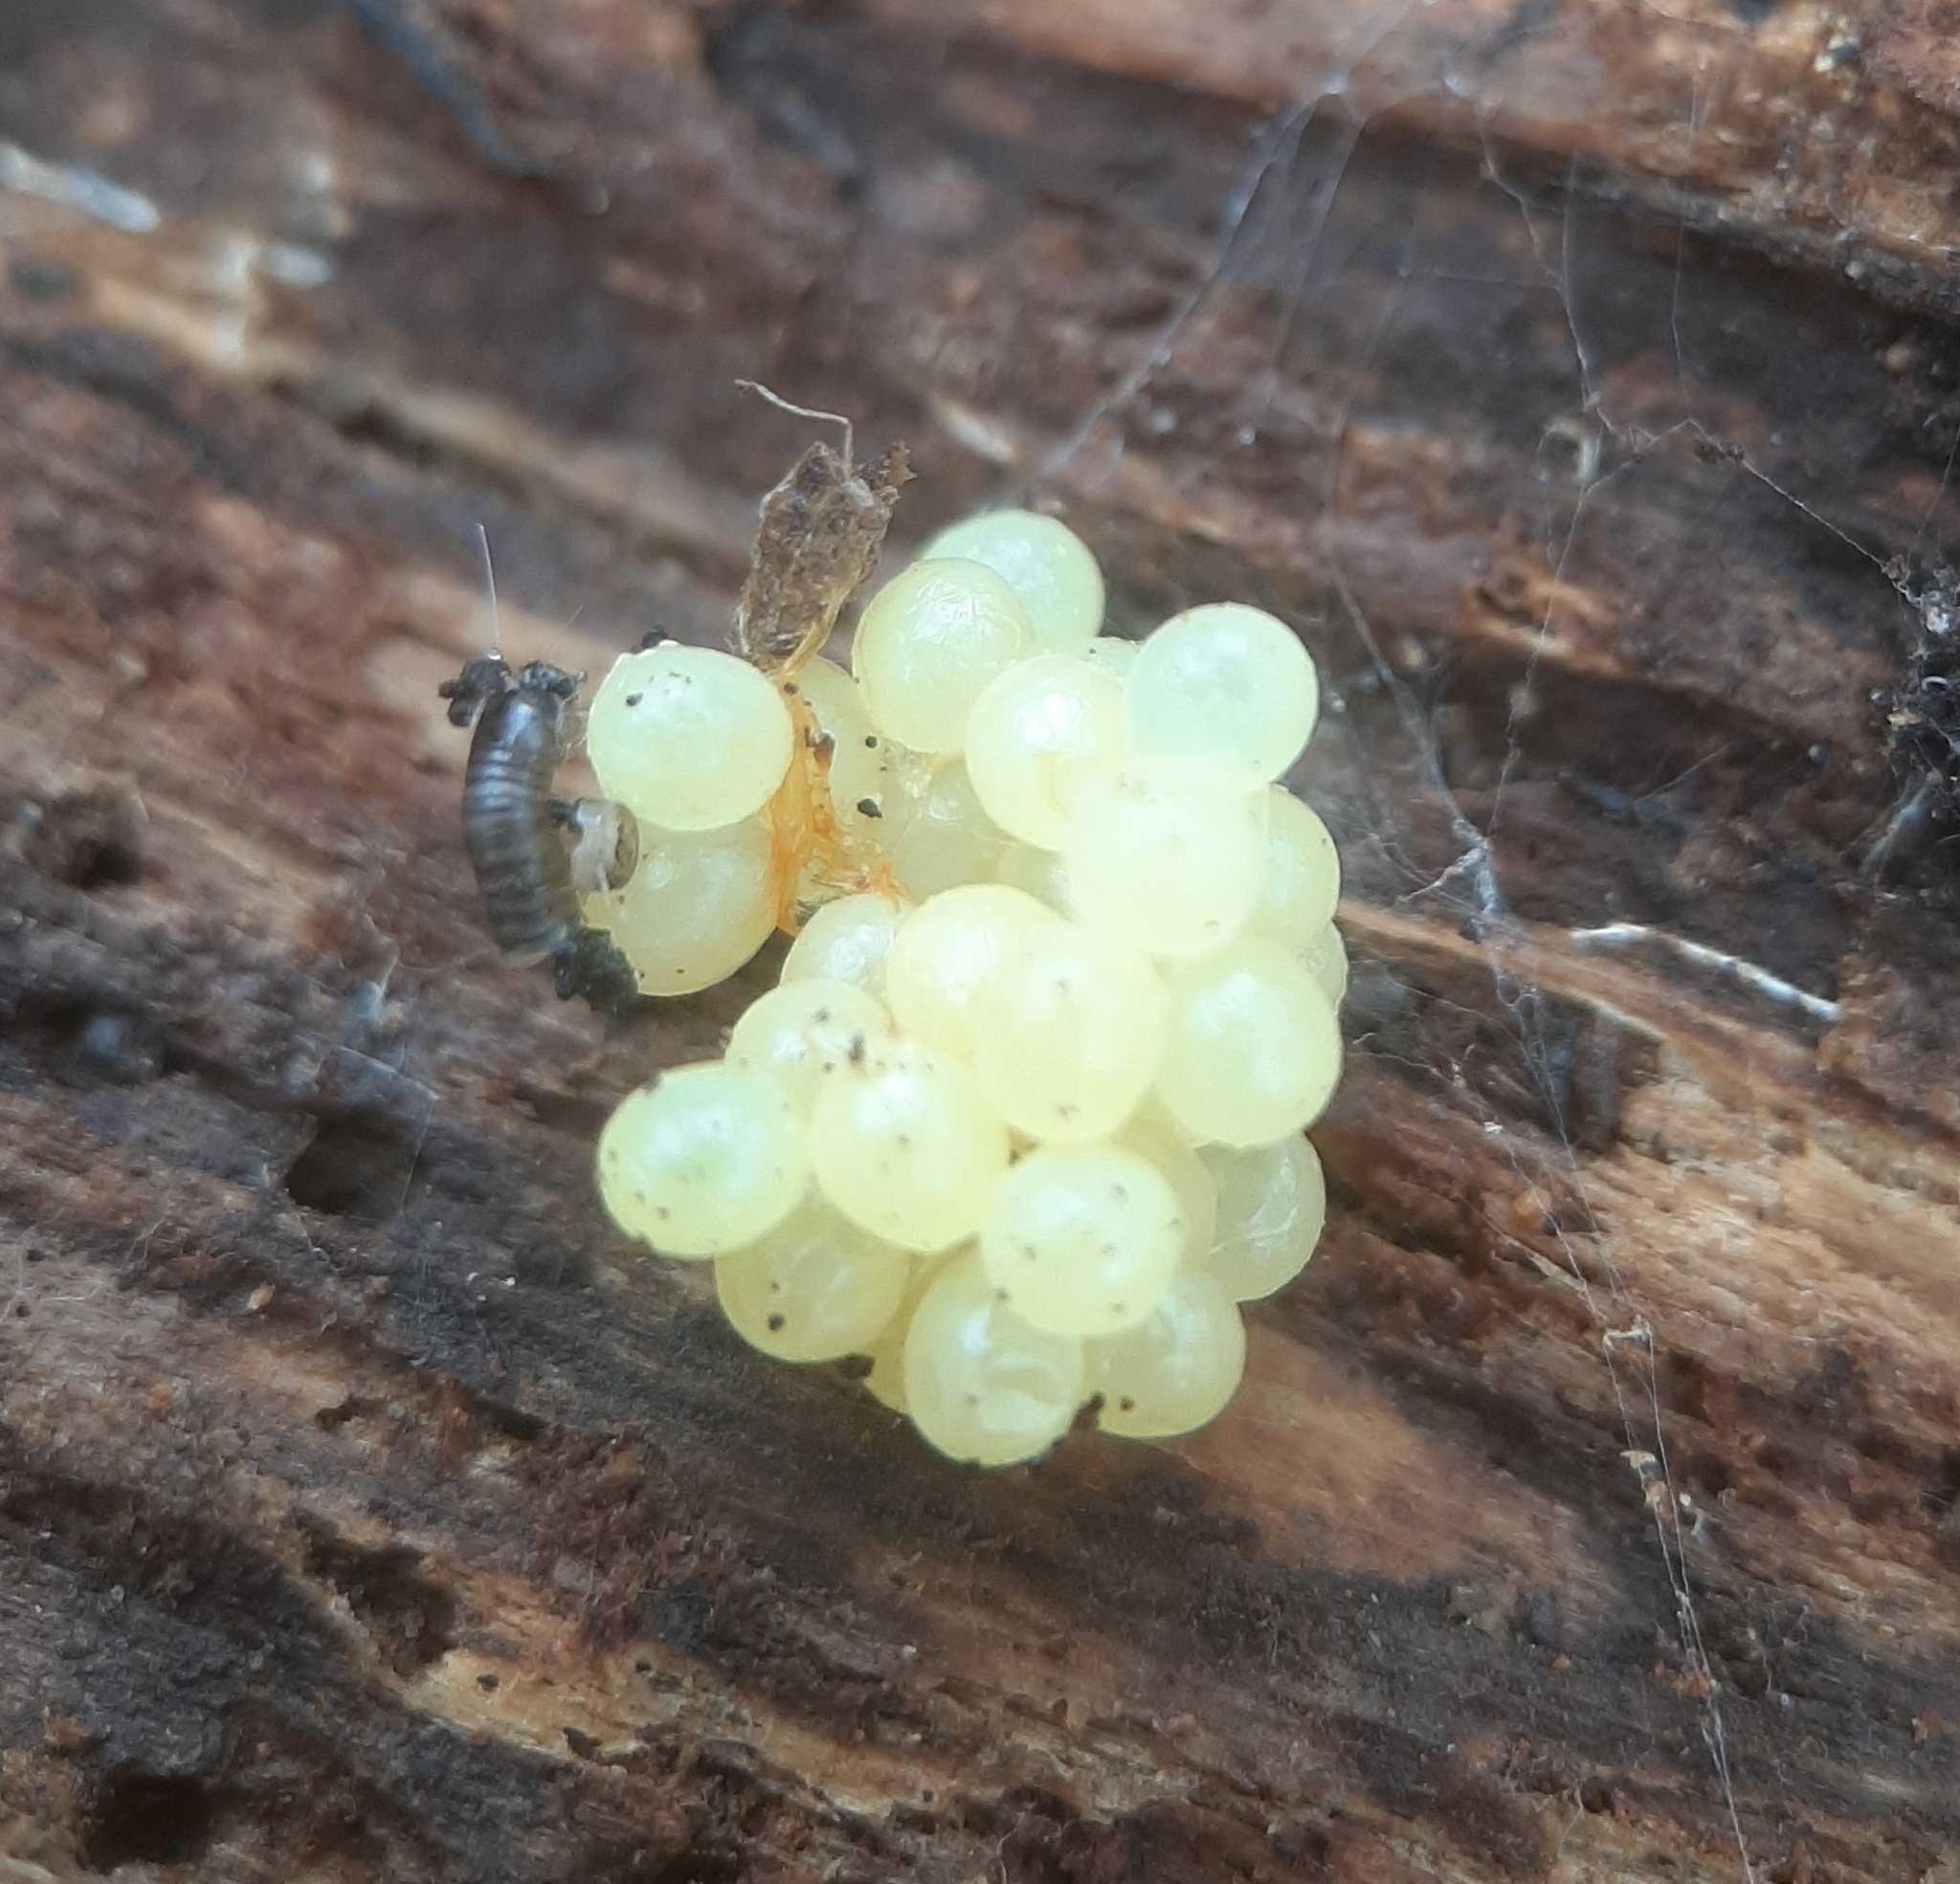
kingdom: Animalia
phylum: Arthropoda
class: Insecta
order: Dermaptera
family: Forficulidae
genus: Forficula
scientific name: Forficula
